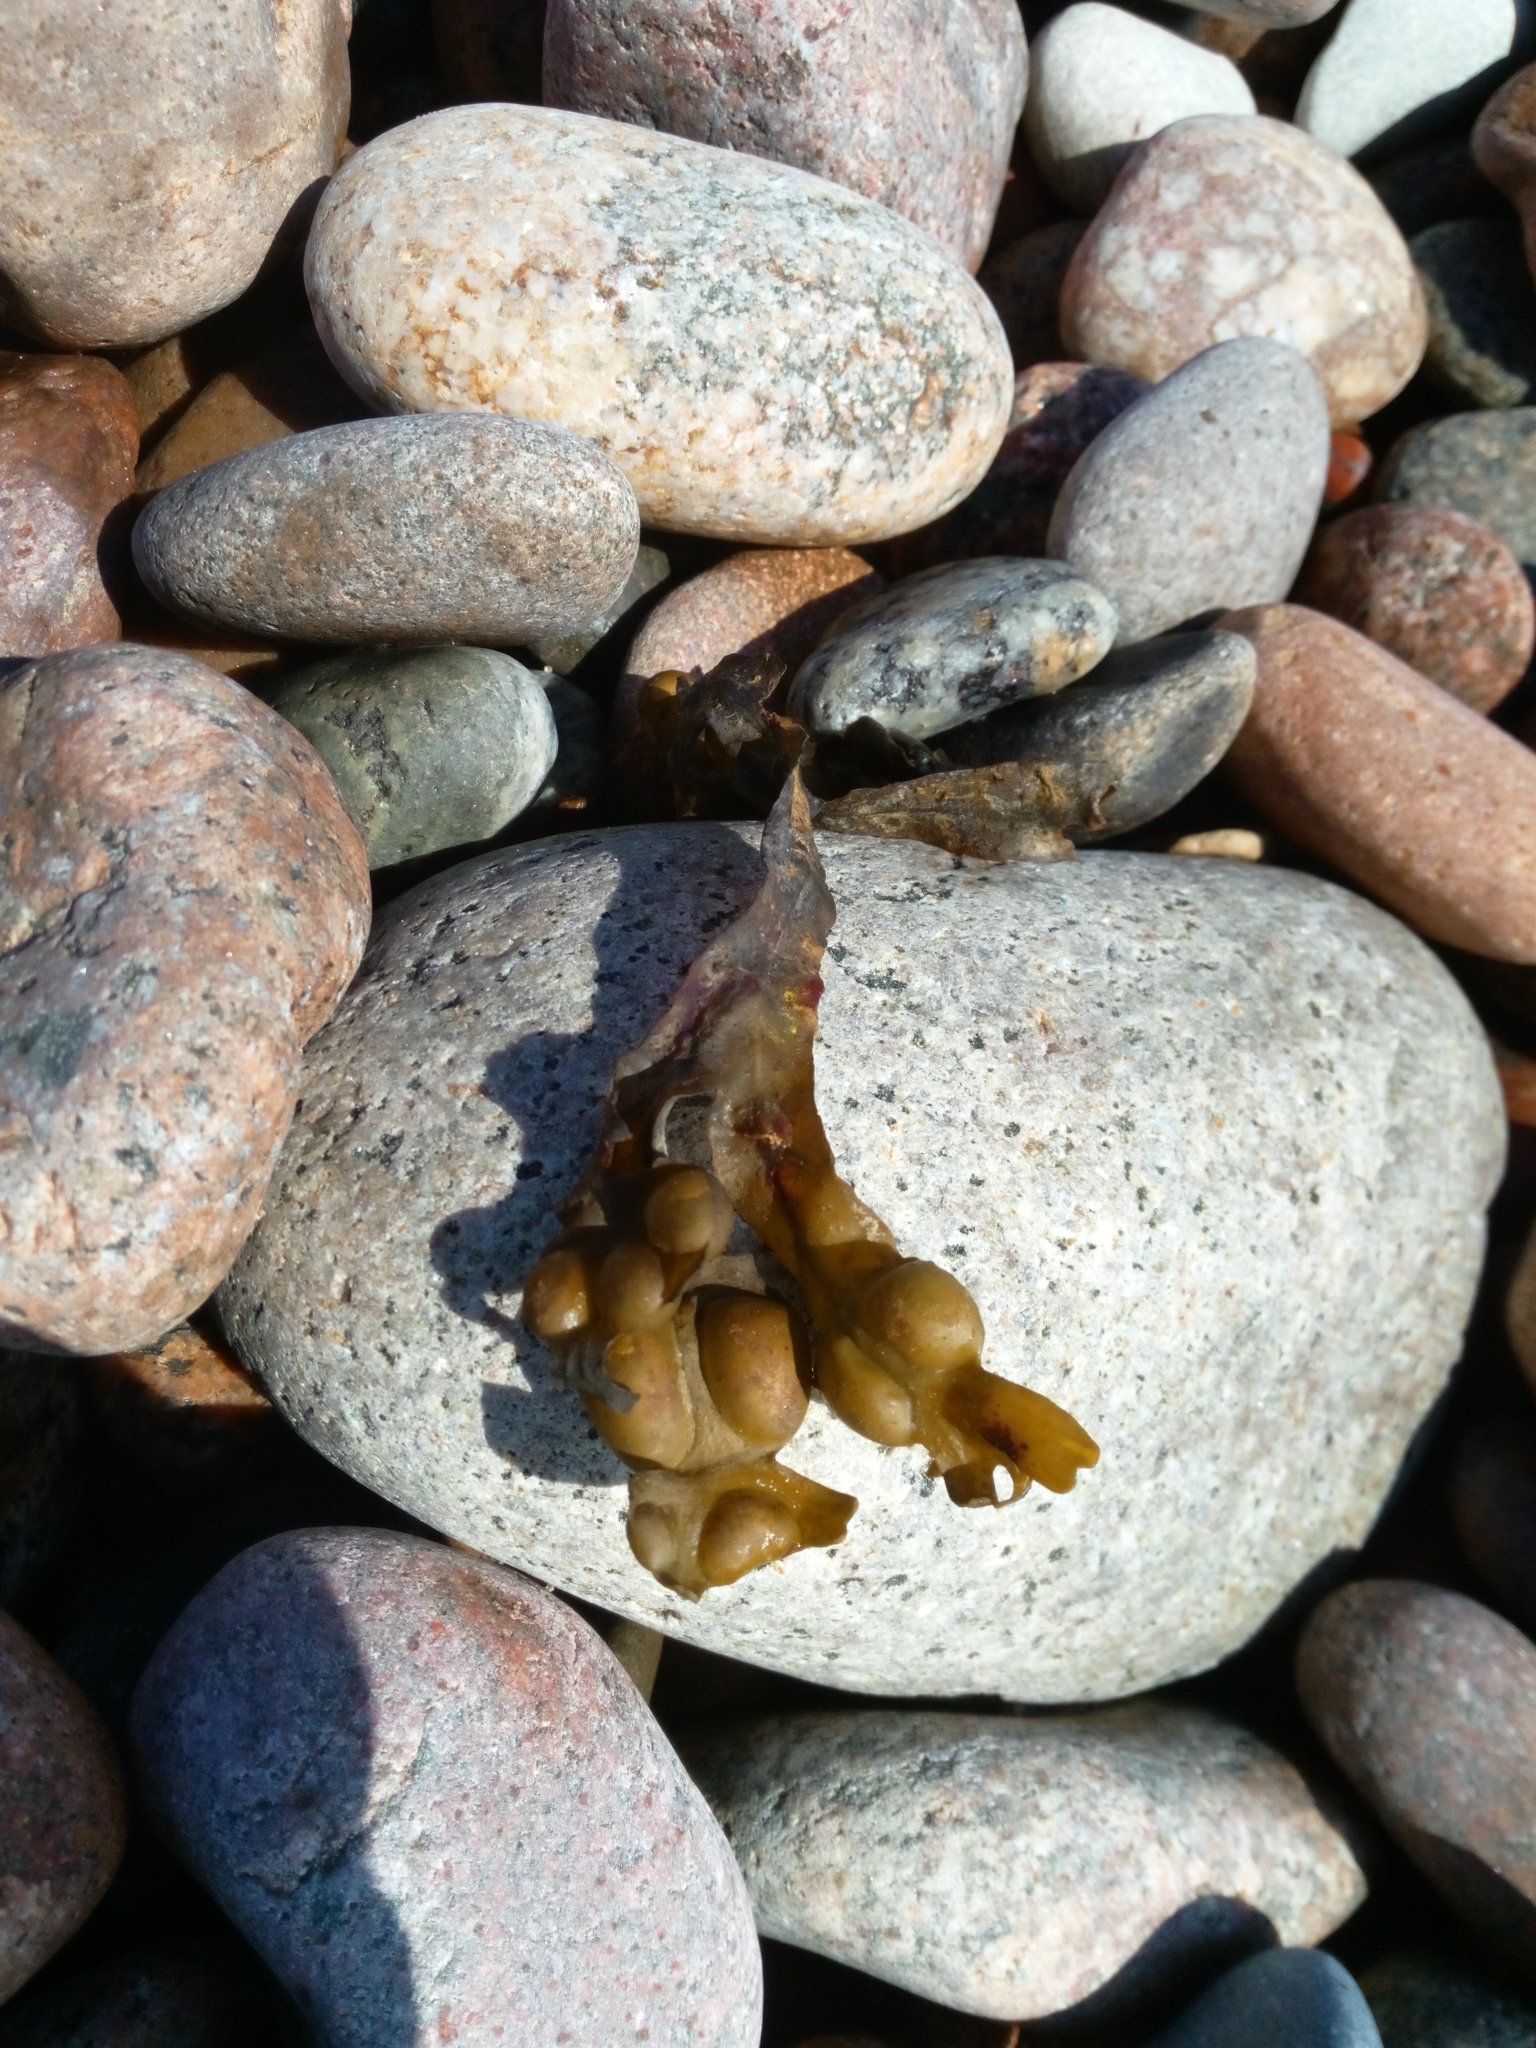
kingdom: Chromista
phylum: Ochrophyta
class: Phaeophyceae
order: Fucales
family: Fucaceae
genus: Fucus
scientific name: Fucus vesiculosus
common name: Bladder wrack
